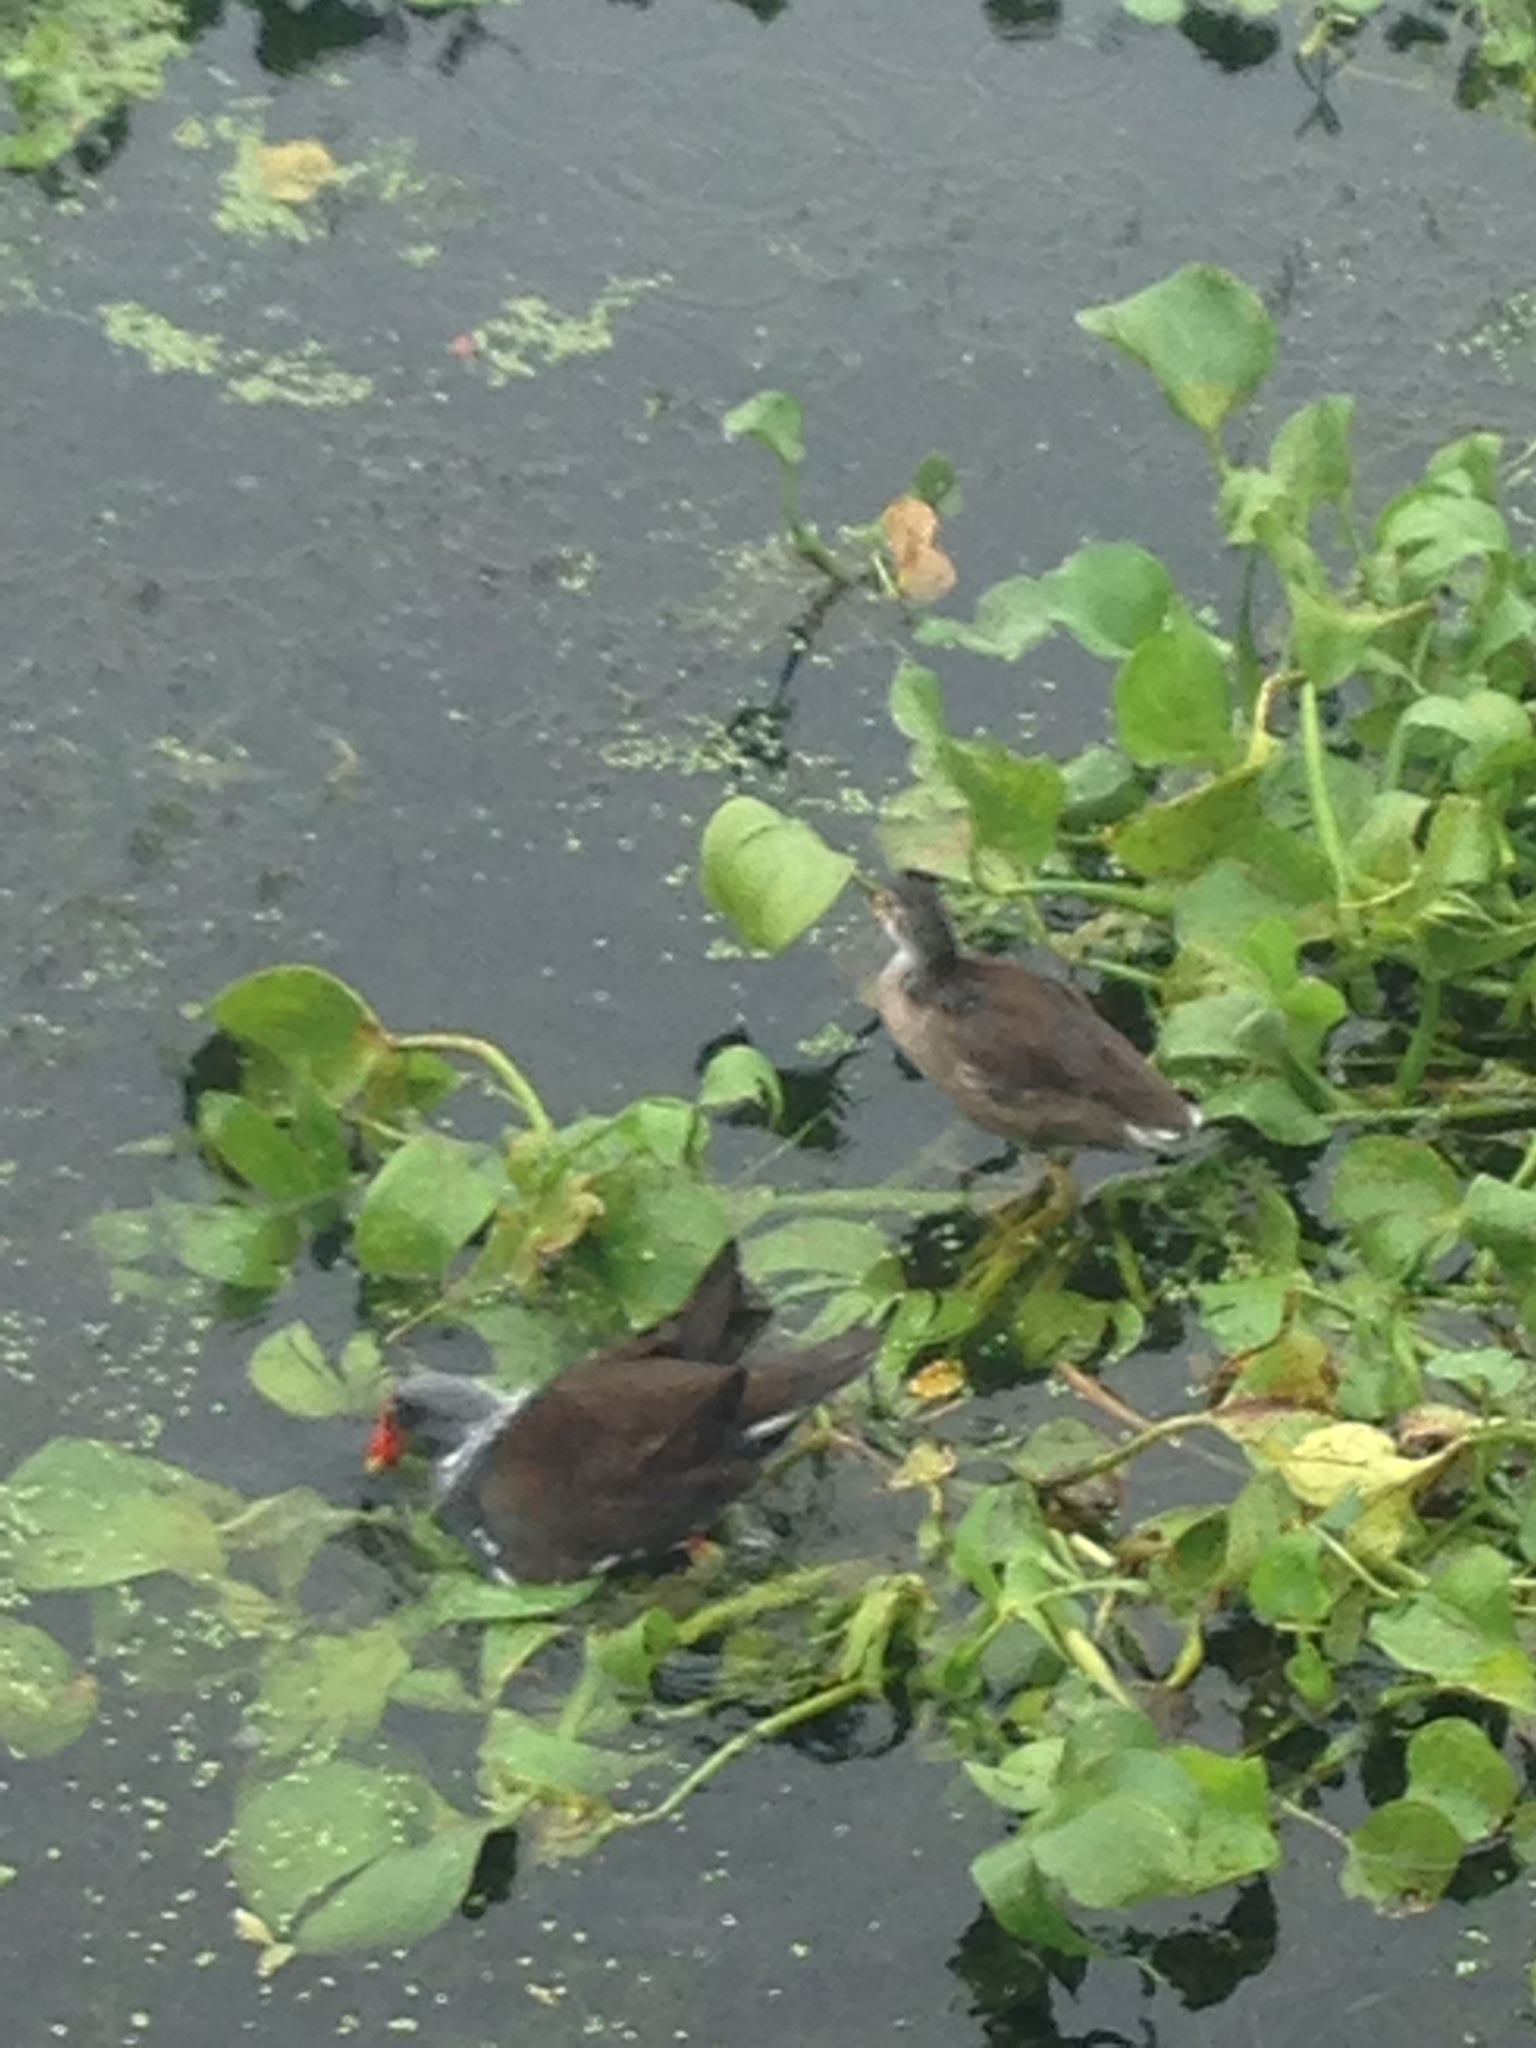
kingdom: Animalia
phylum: Chordata
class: Aves
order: Gruiformes
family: Rallidae
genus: Gallinula
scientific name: Gallinula chloropus
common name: Common moorhen
